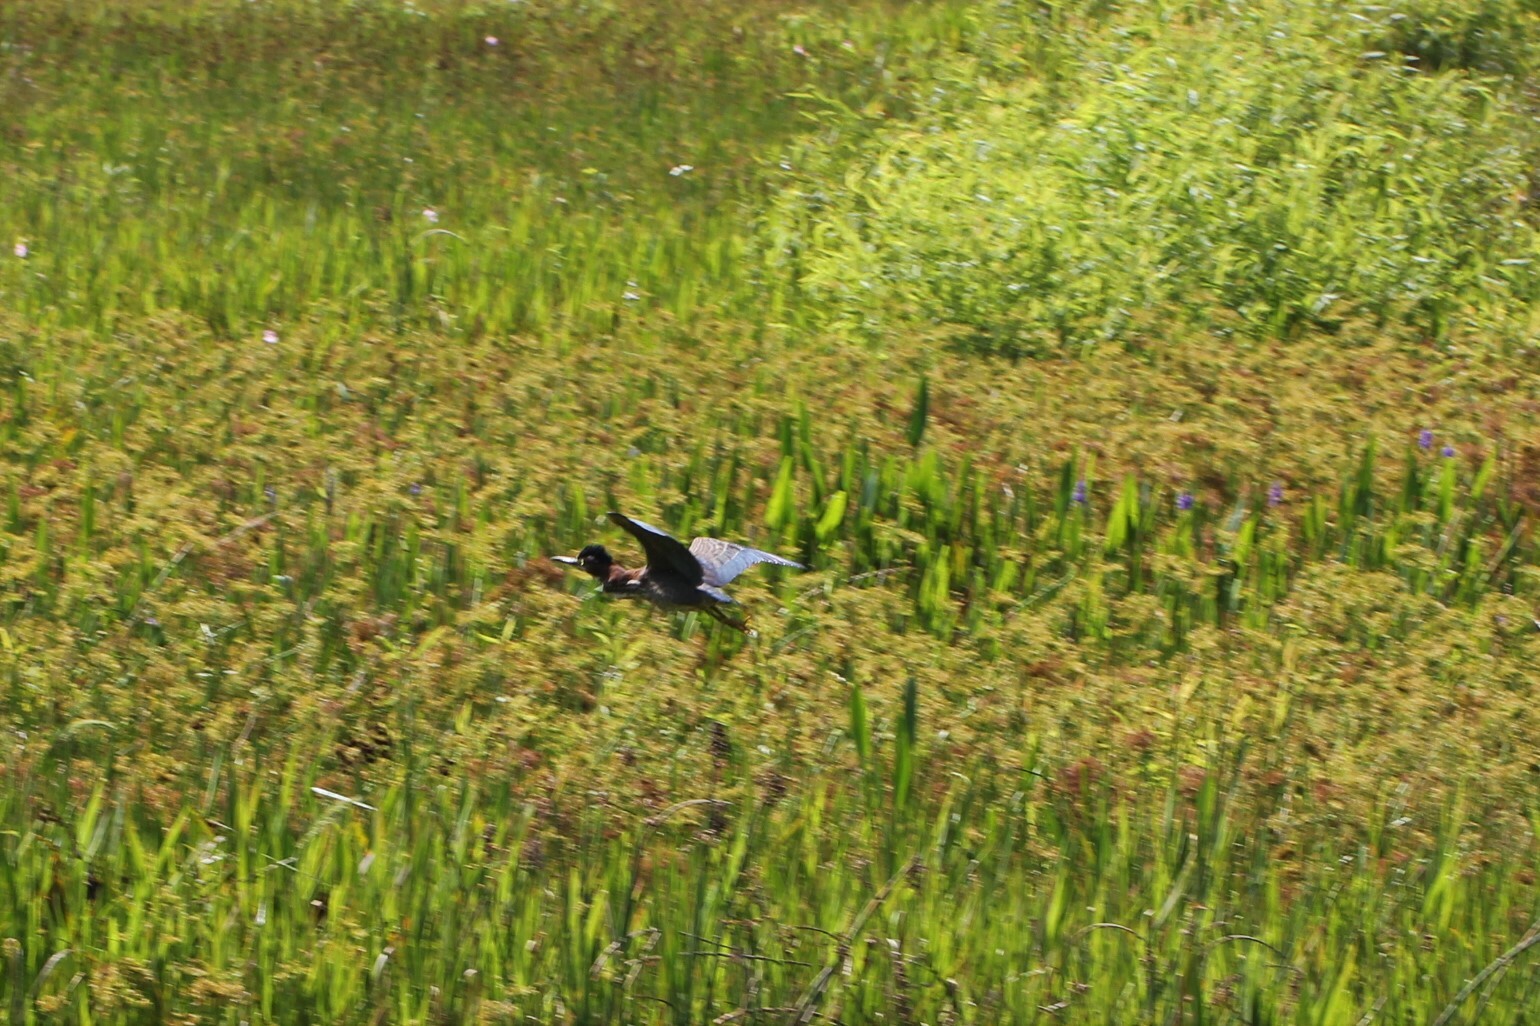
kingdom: Animalia
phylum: Chordata
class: Aves
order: Pelecaniformes
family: Ardeidae
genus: Butorides
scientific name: Butorides virescens
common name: Green heron
